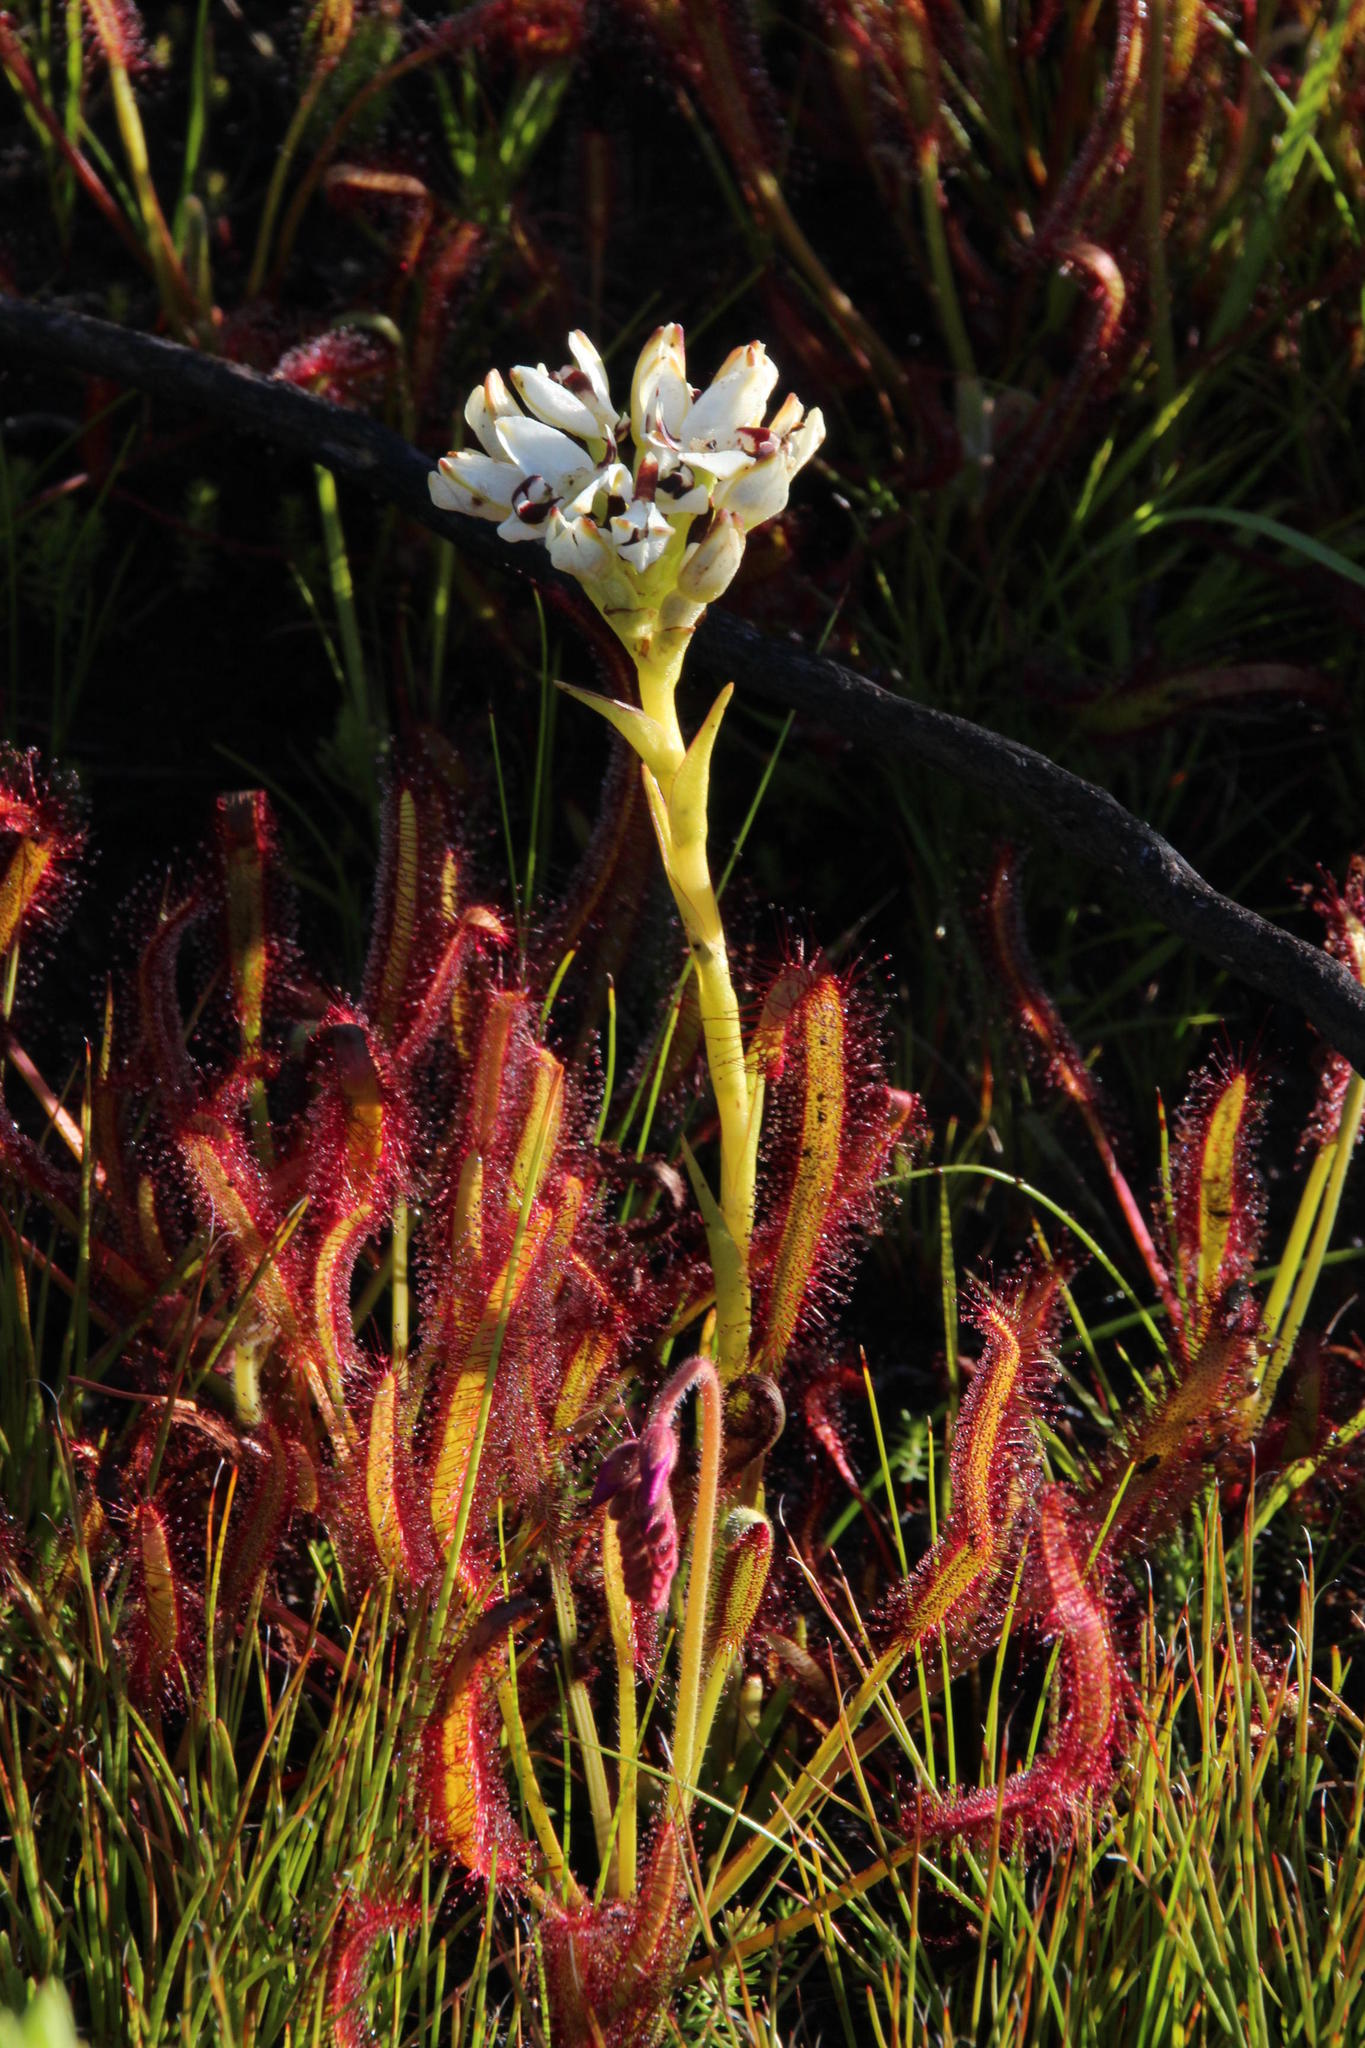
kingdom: Plantae
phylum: Tracheophyta
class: Magnoliopsida
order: Caryophyllales
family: Droseraceae
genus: Drosera
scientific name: Drosera capensis
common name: Cape sundew
